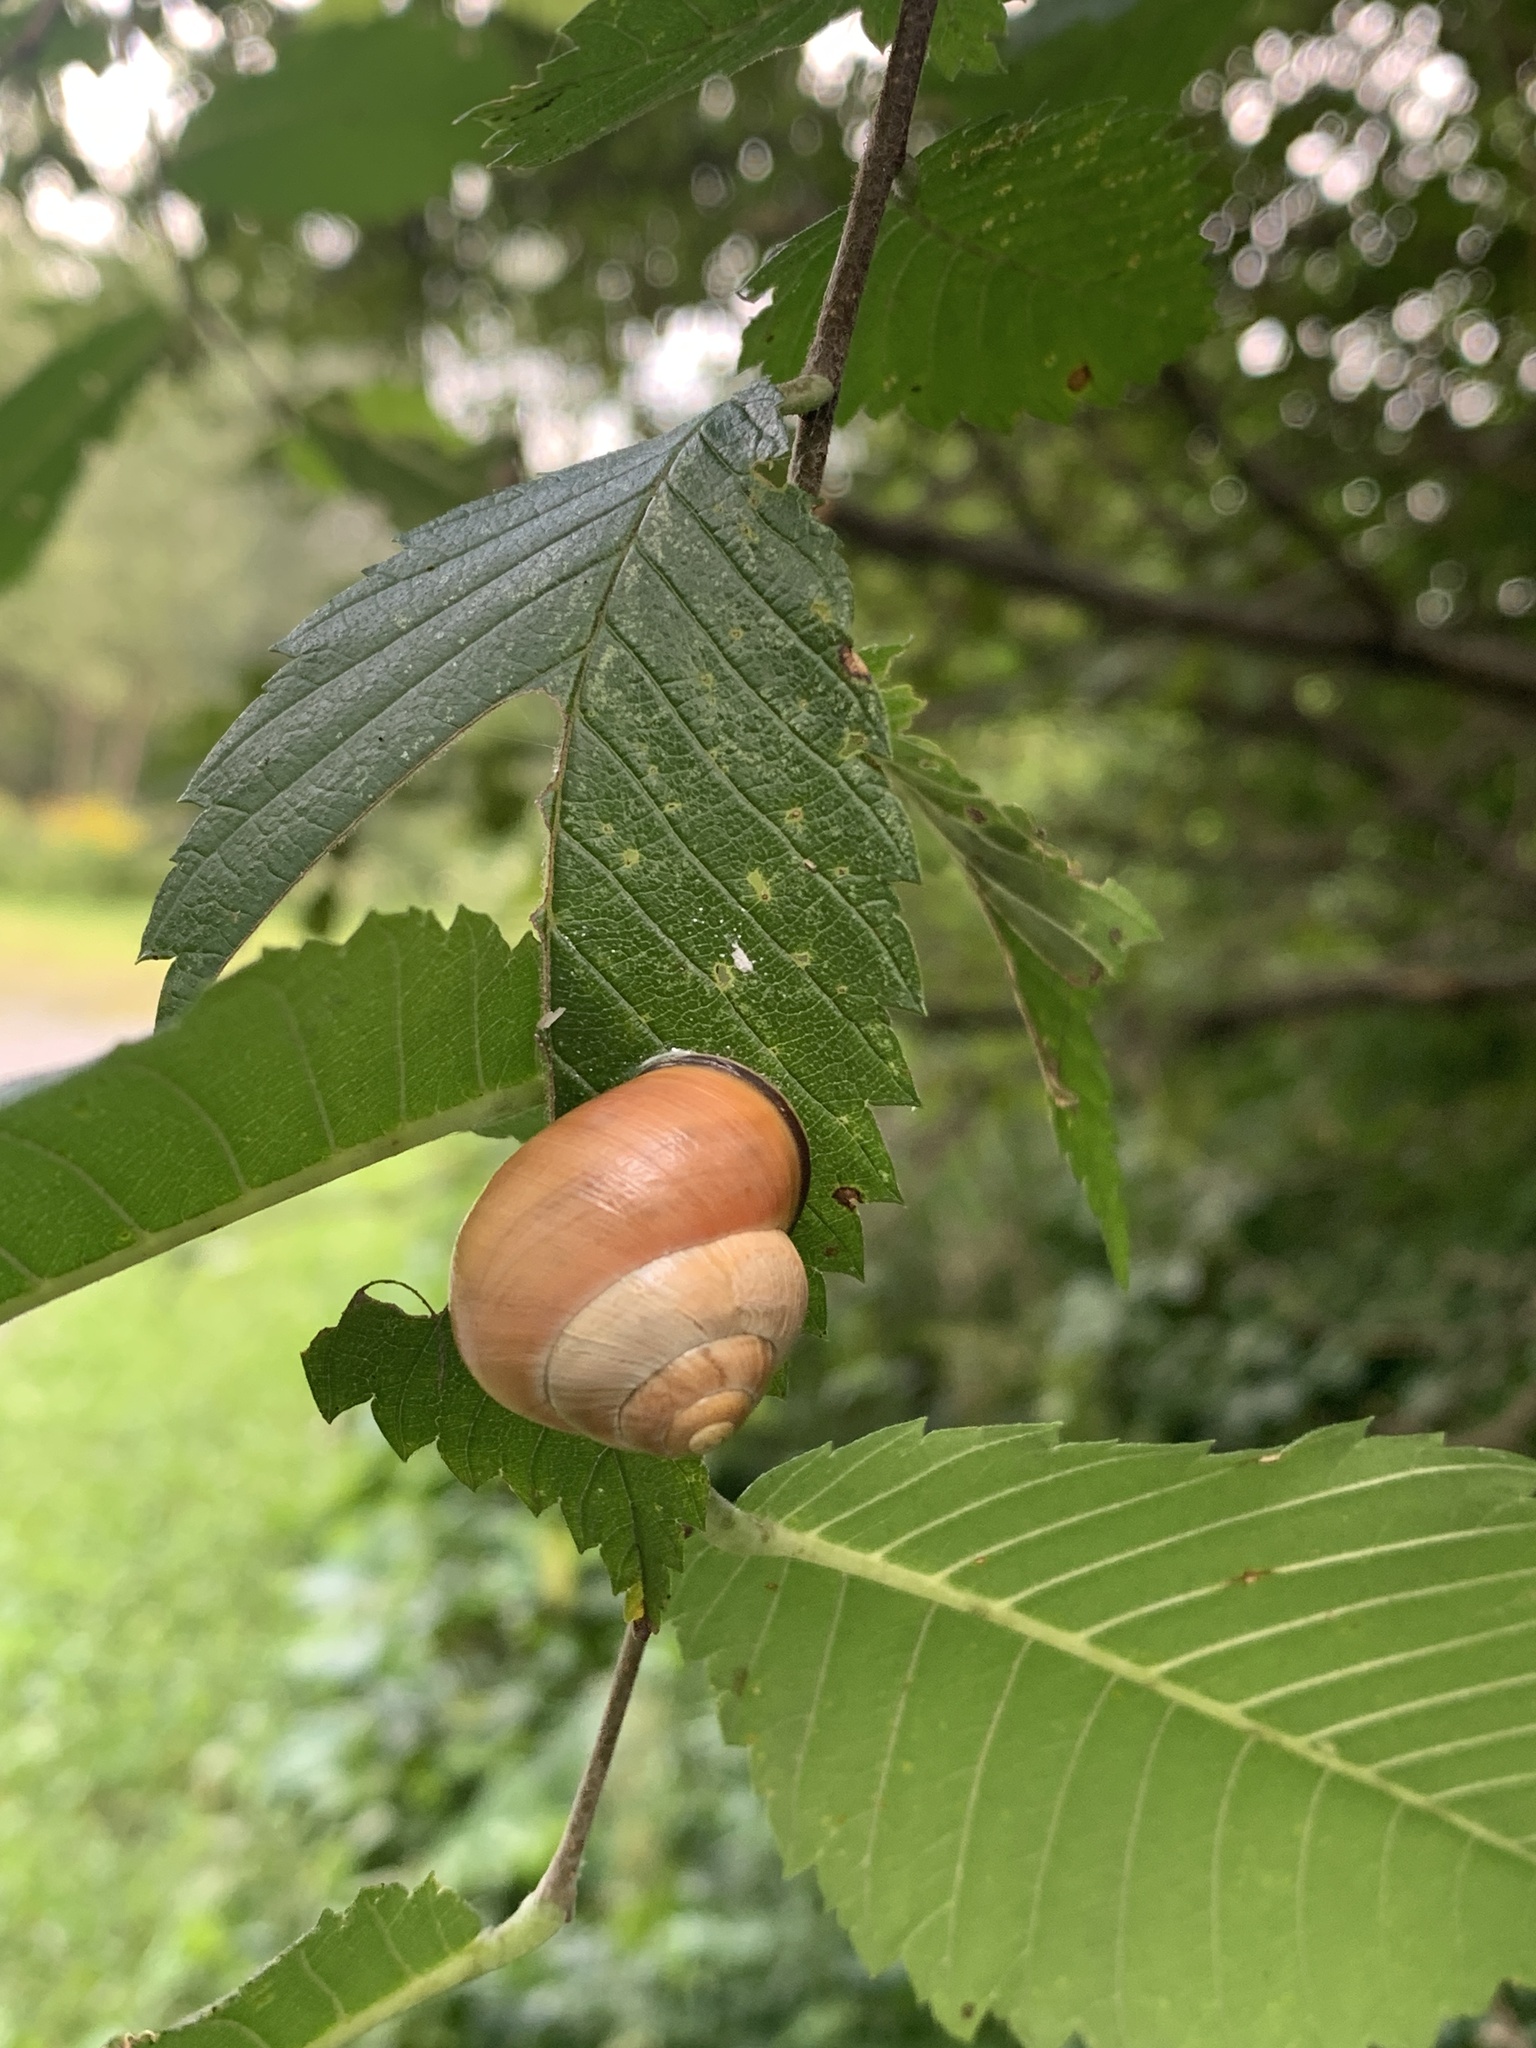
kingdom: Animalia
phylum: Mollusca
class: Gastropoda
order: Stylommatophora
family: Helicidae
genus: Cepaea
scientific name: Cepaea nemoralis
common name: Grovesnail
